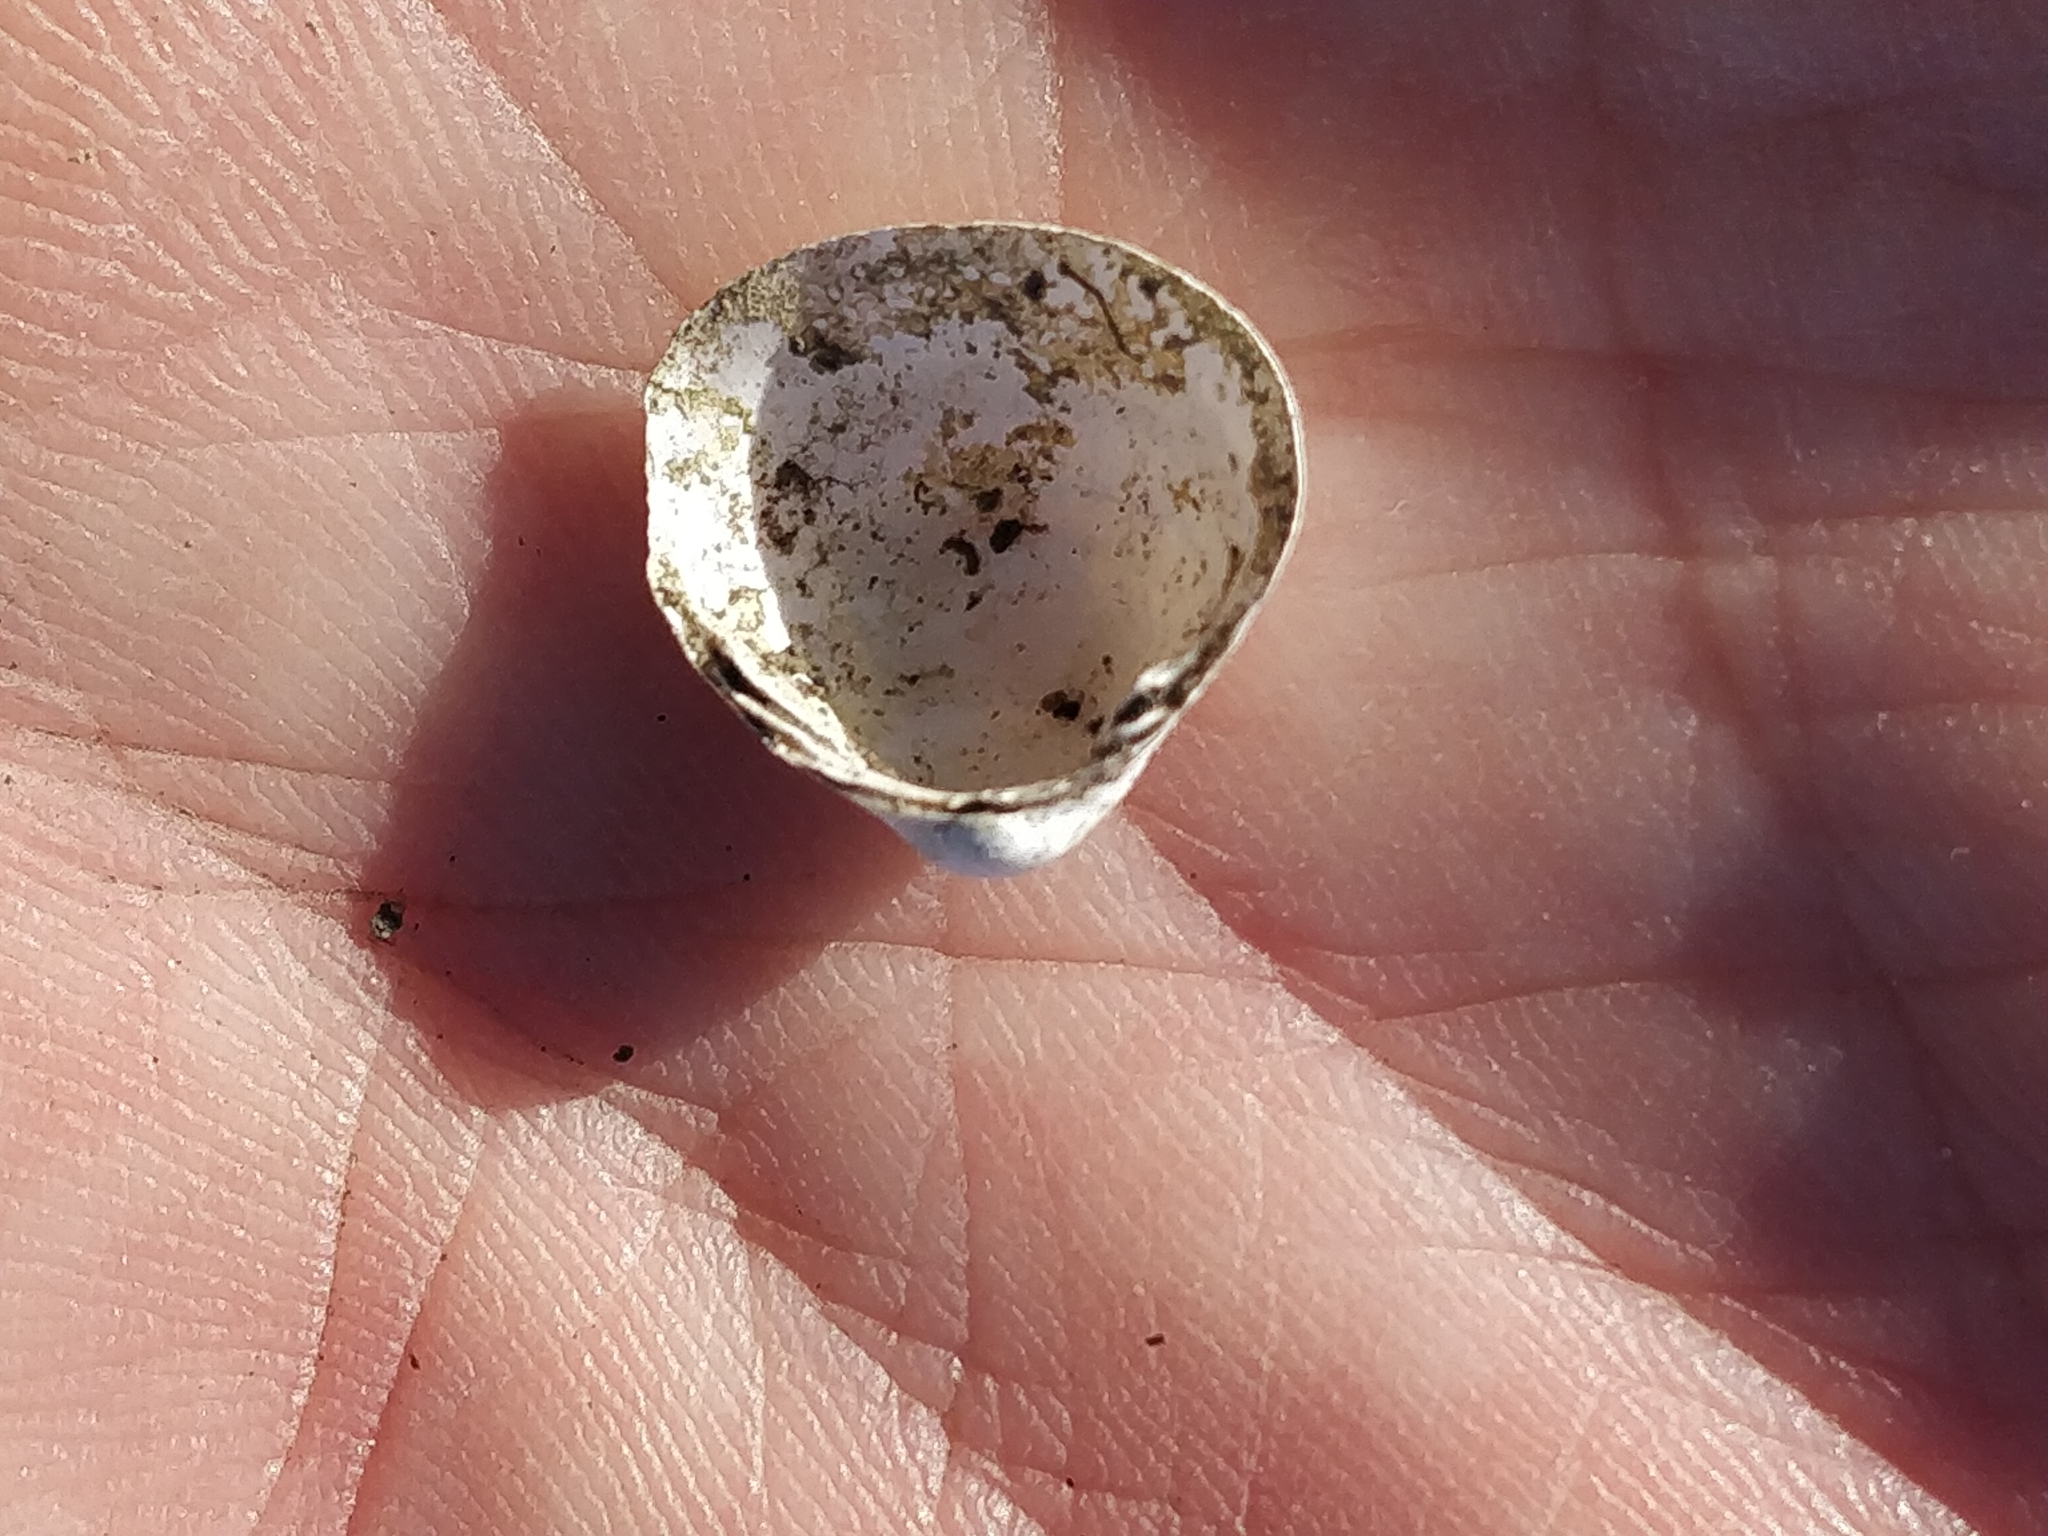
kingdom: Animalia
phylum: Mollusca
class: Bivalvia
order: Sphaeriida
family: Sphaeriidae
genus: Sphaerium
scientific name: Sphaerium striatinum
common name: Striated fingernailclam
